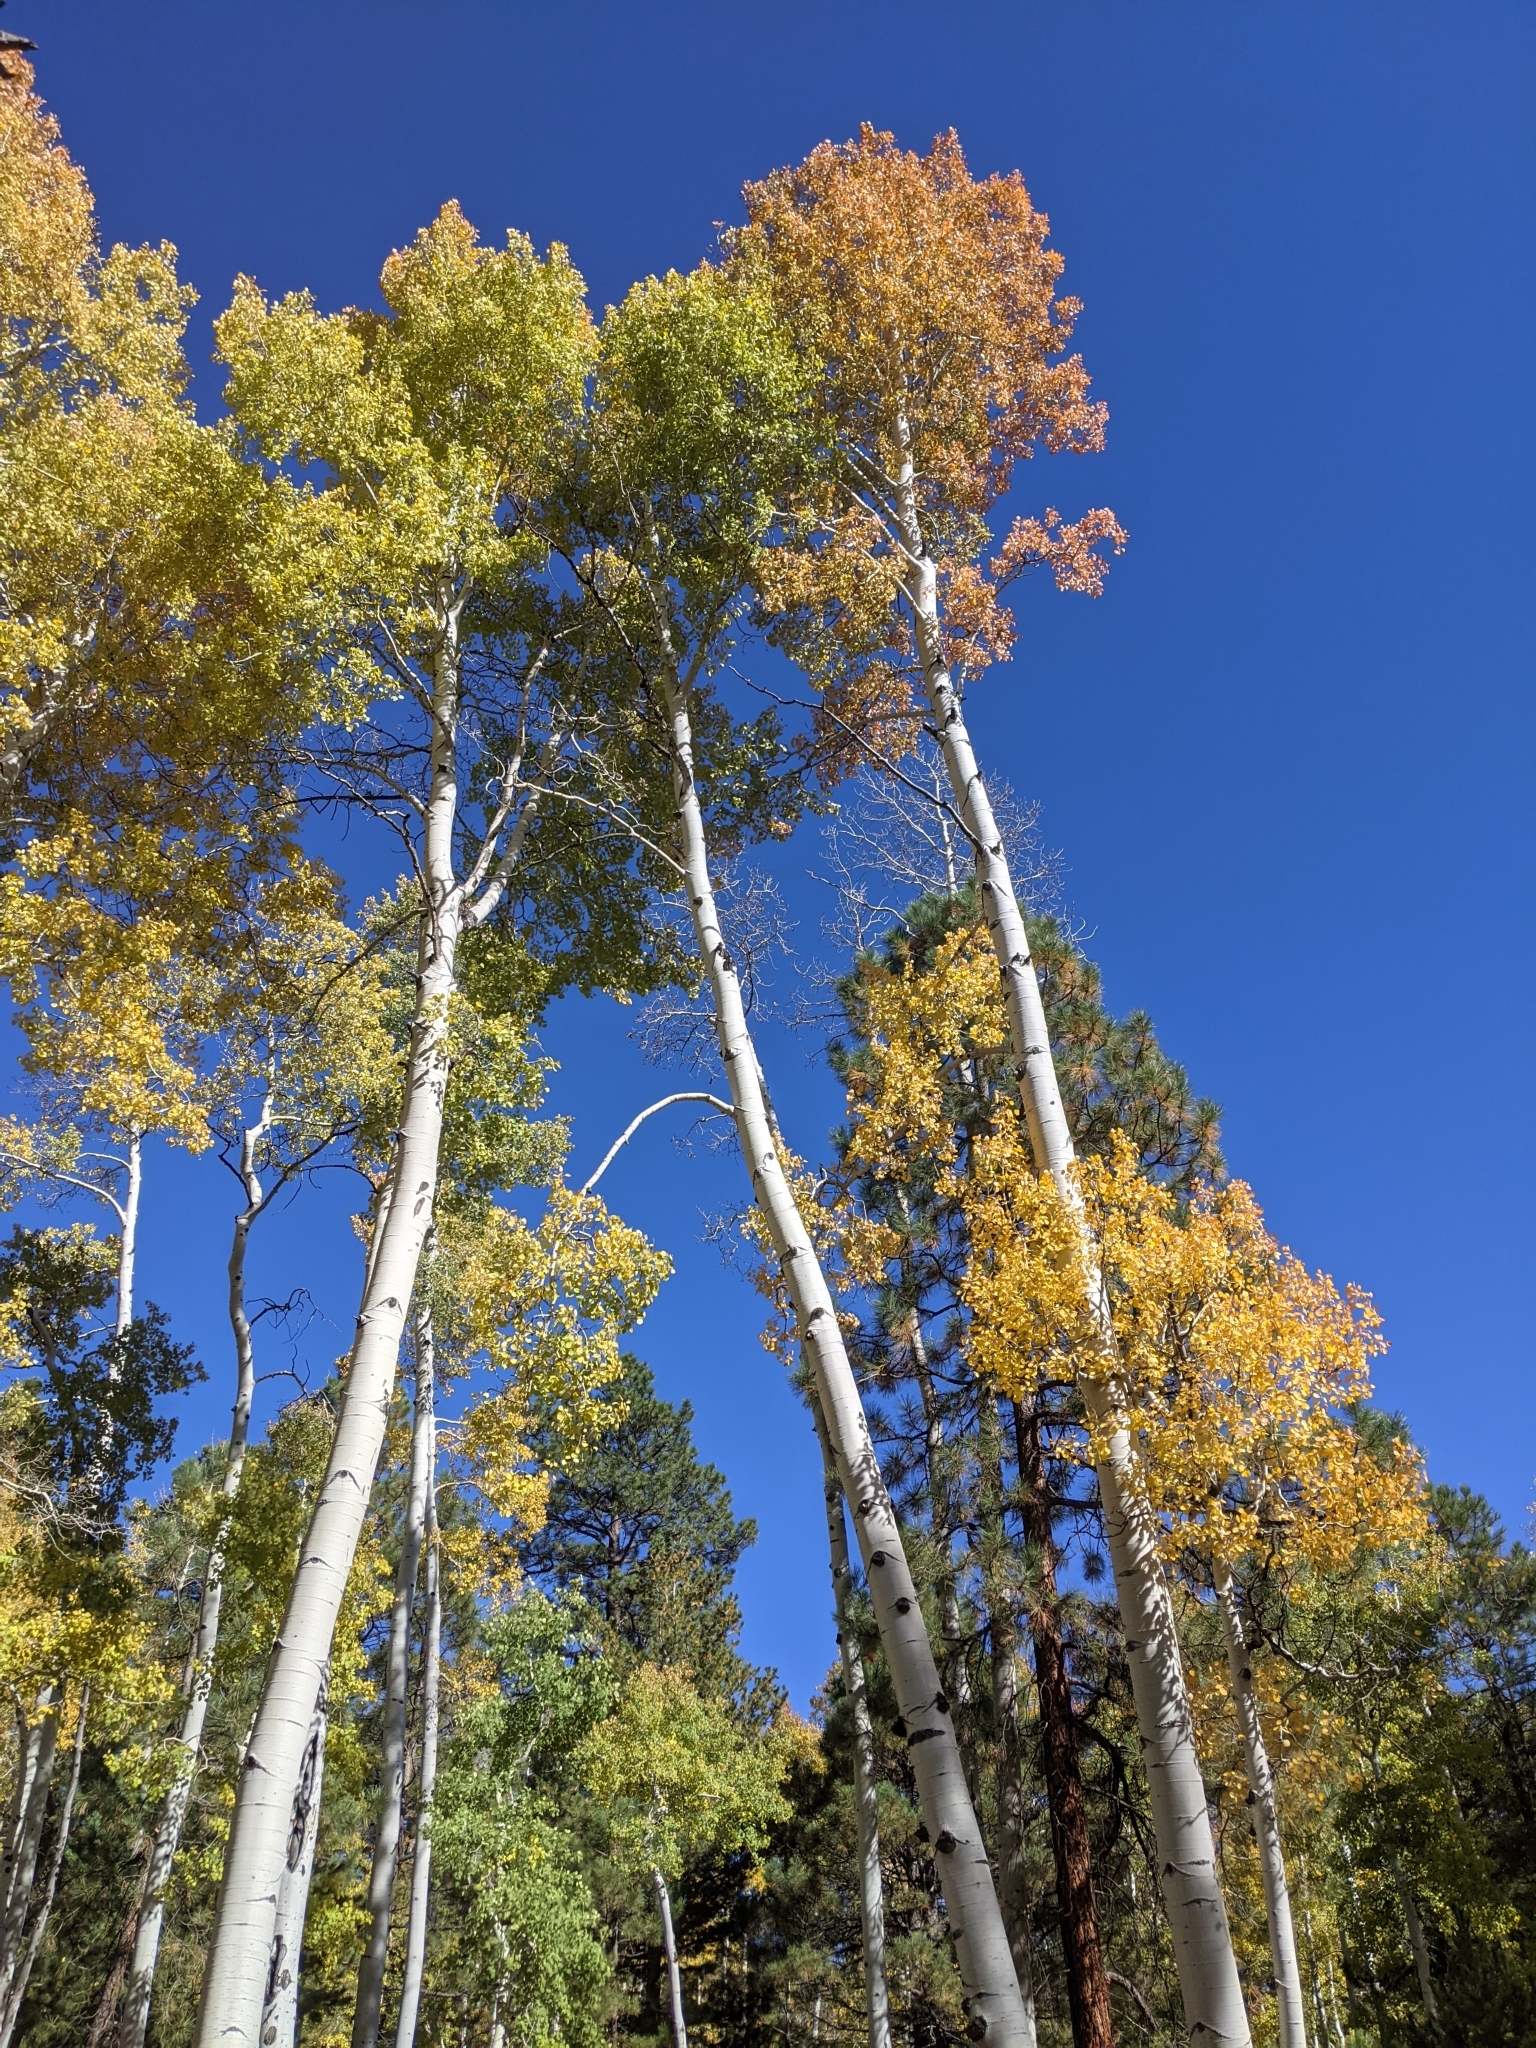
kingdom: Plantae
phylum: Tracheophyta
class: Magnoliopsida
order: Malpighiales
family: Salicaceae
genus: Populus
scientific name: Populus tremuloides
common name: Quaking aspen
